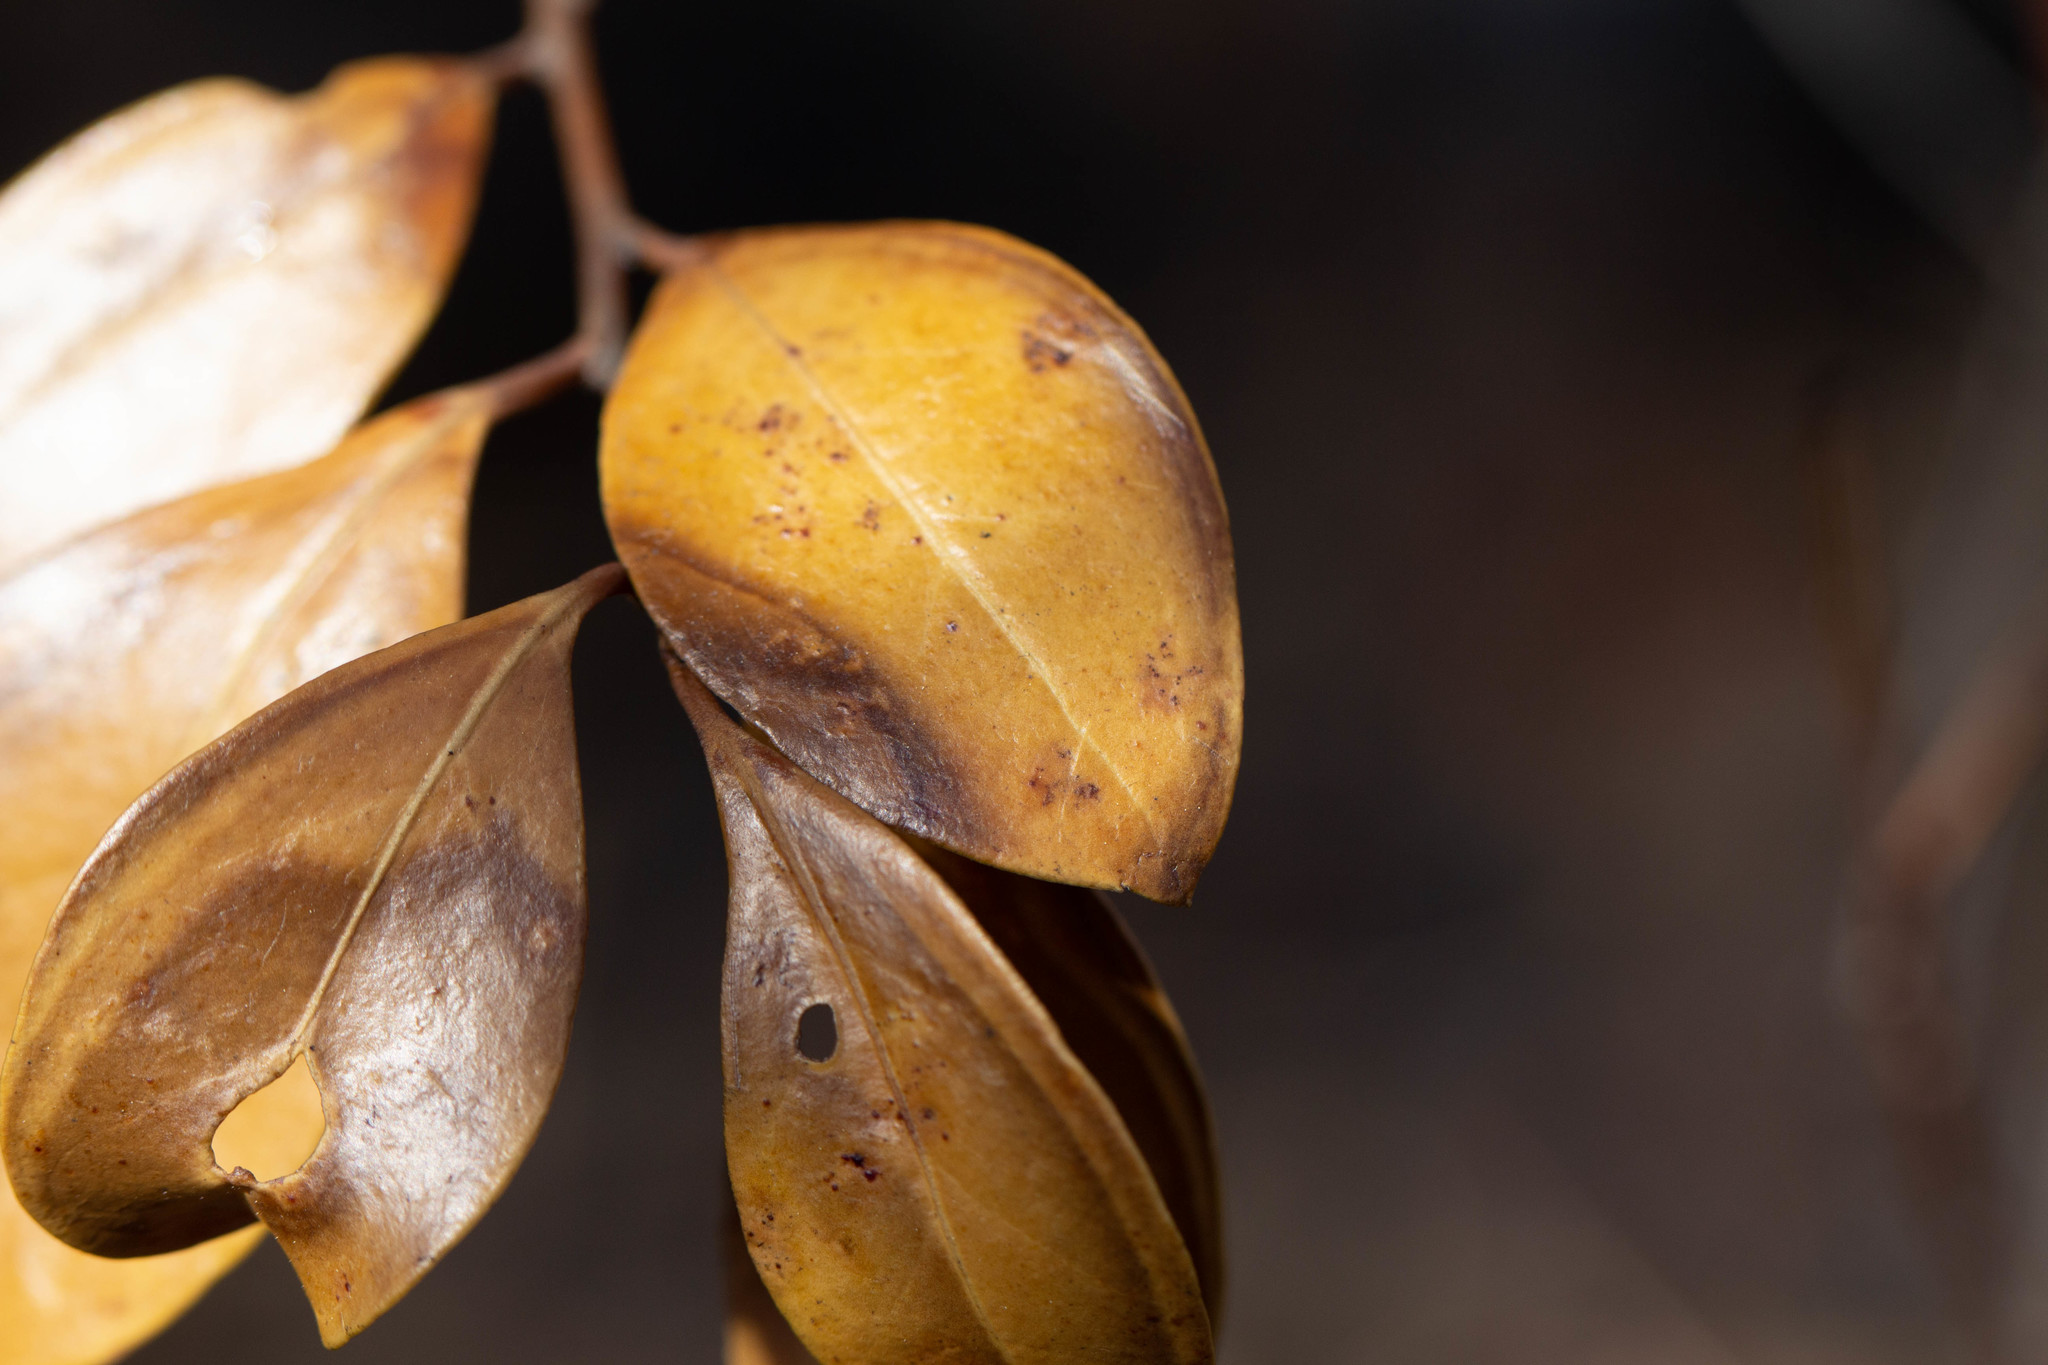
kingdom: Plantae
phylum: Tracheophyta
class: Magnoliopsida
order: Ericales
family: Ericaceae
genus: Lyonia
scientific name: Lyonia lucida
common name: Fetterbush
